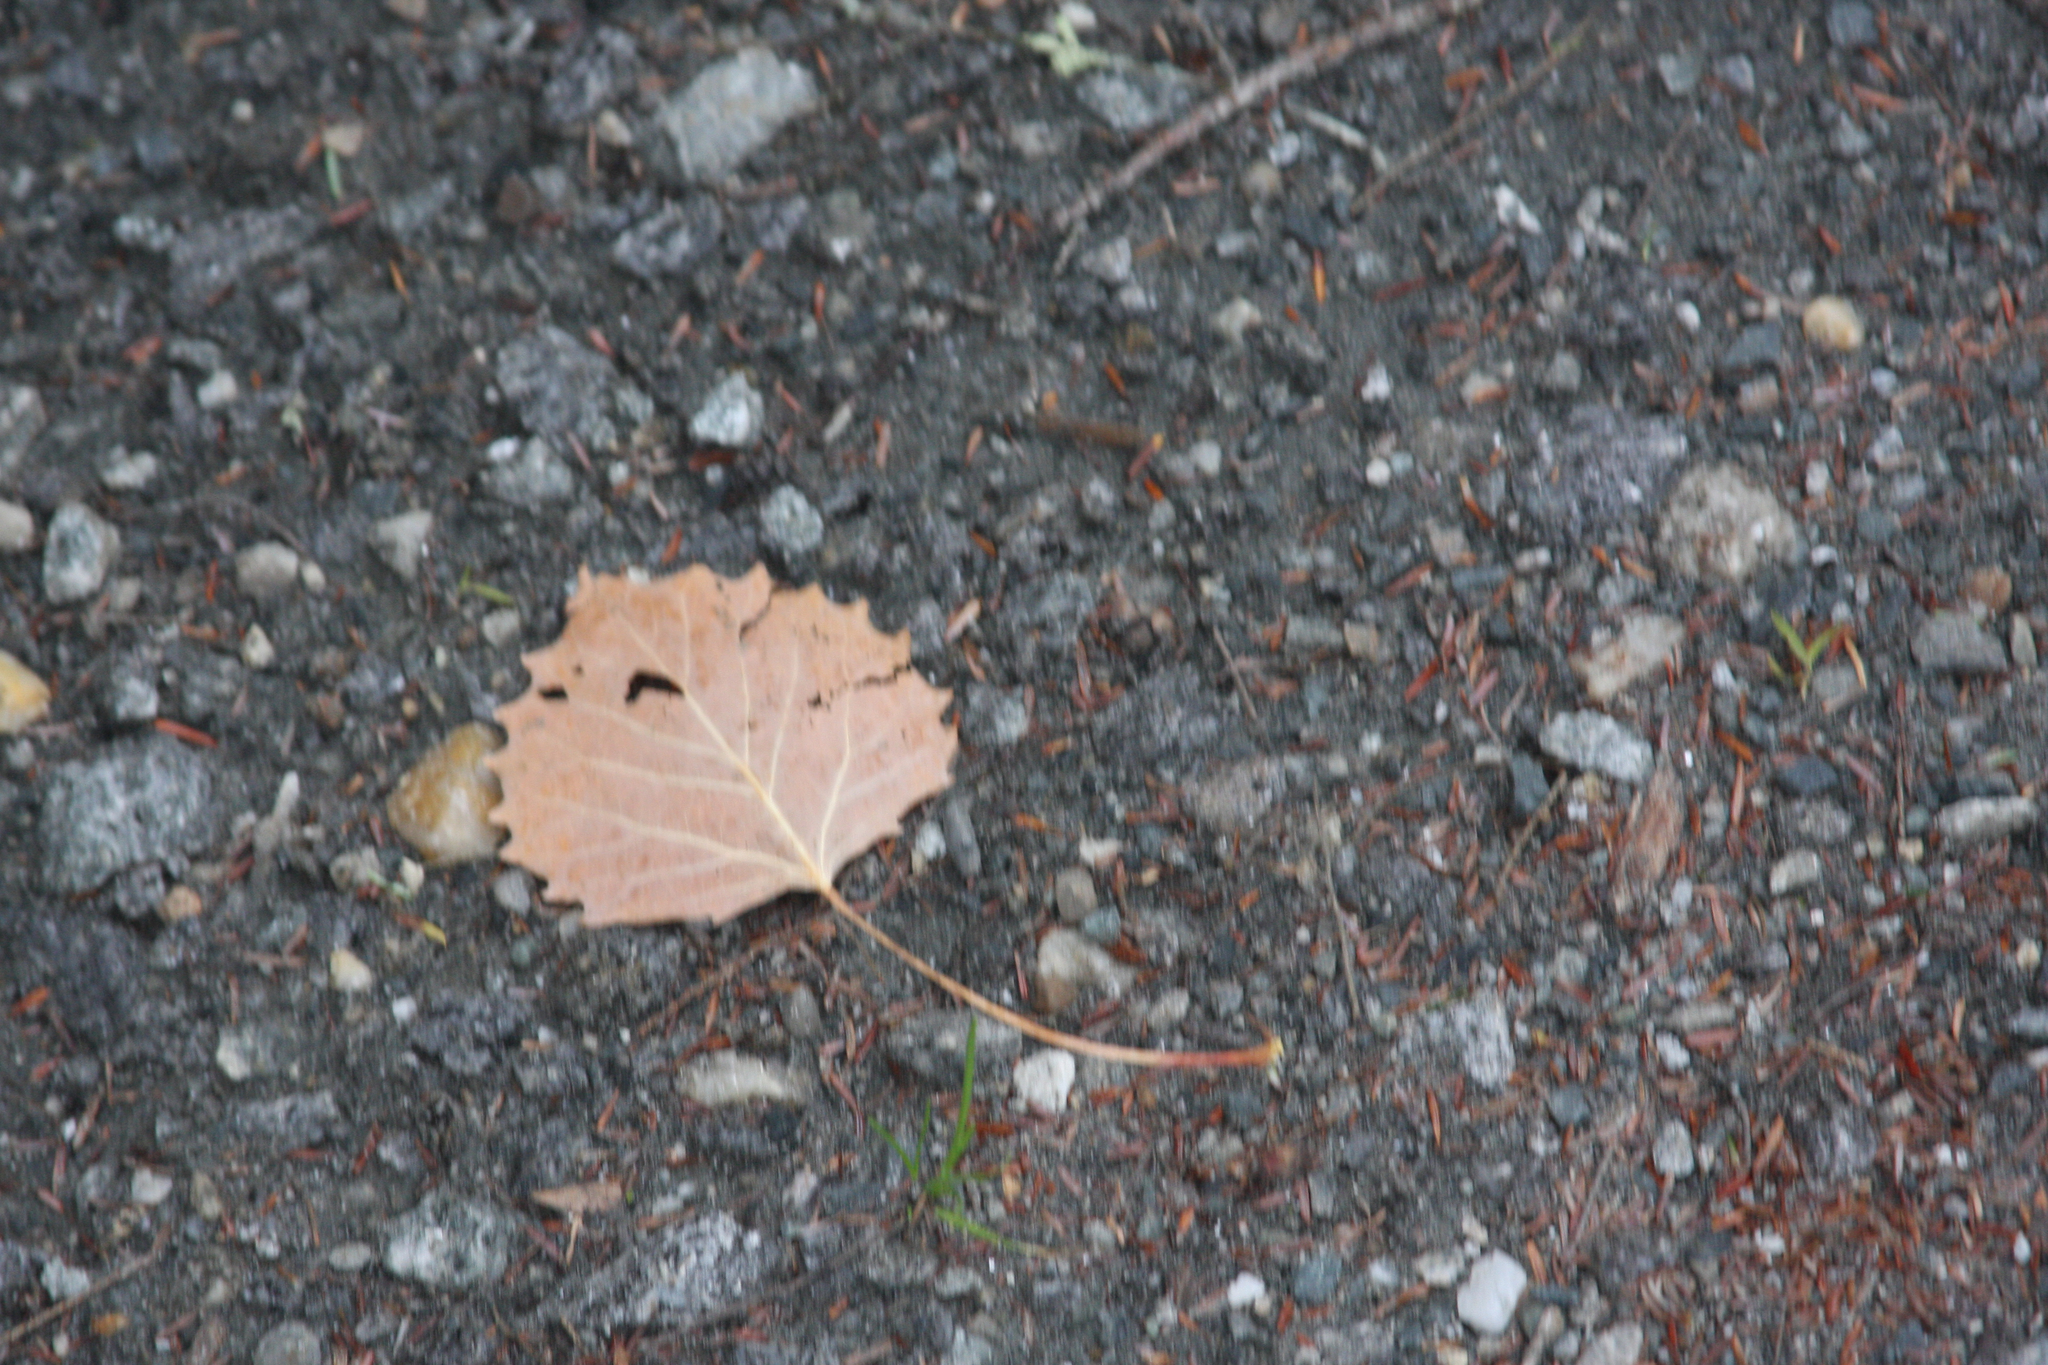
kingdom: Plantae
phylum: Tracheophyta
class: Magnoliopsida
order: Malpighiales
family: Salicaceae
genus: Populus
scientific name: Populus grandidentata
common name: Bigtooth aspen
